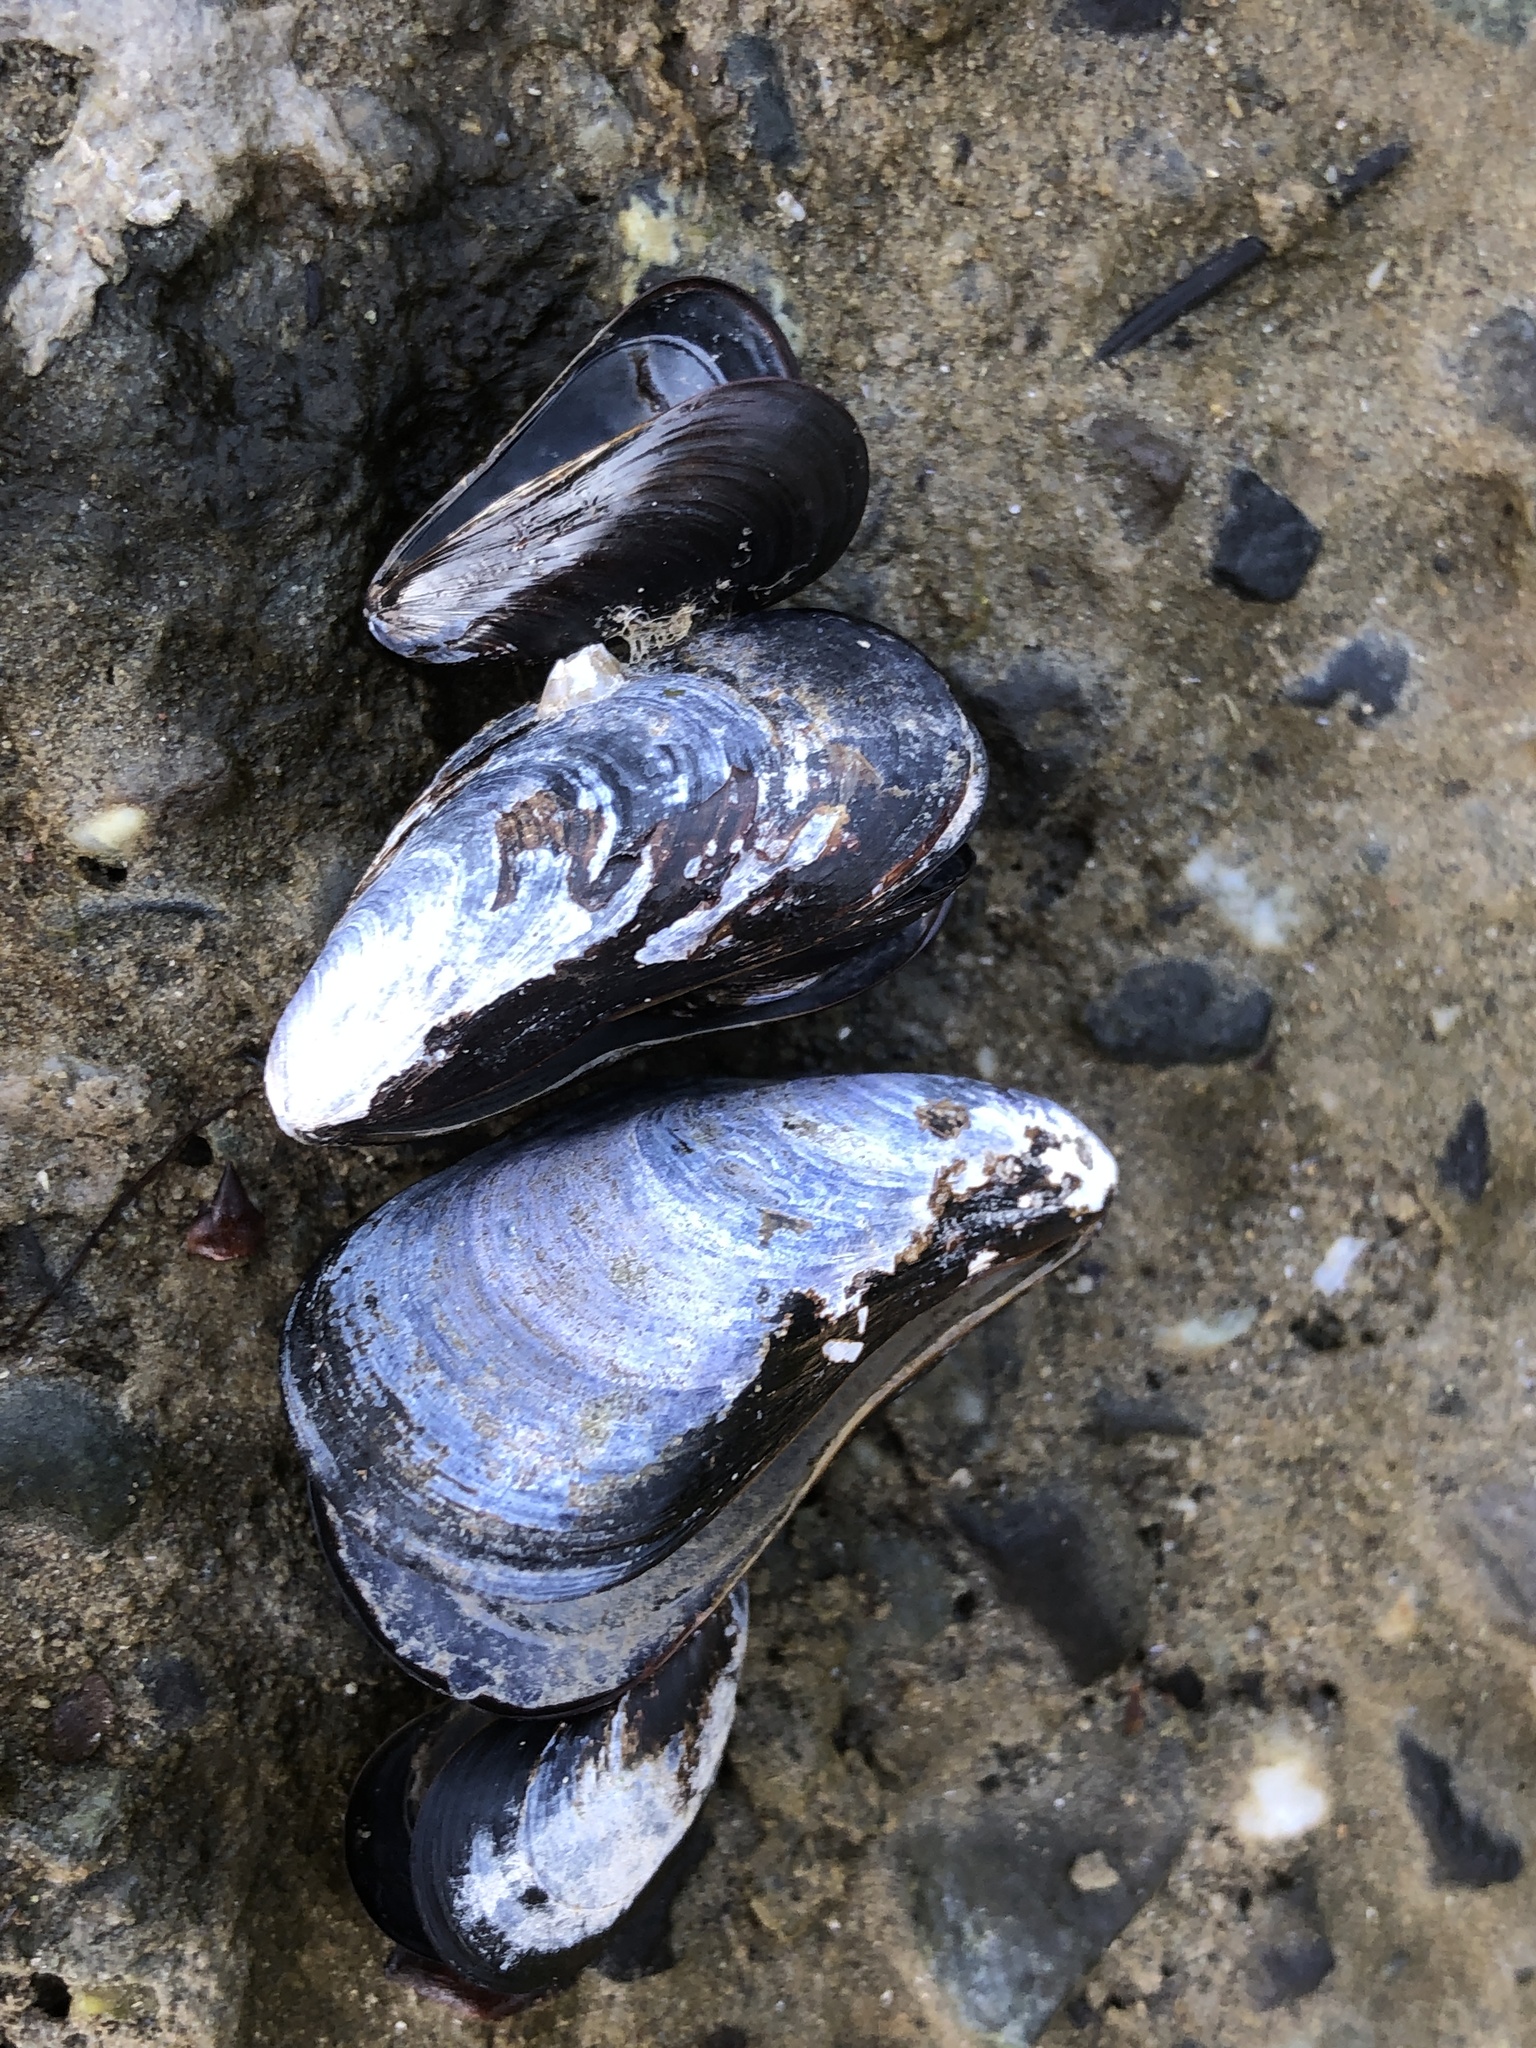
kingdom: Animalia
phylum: Mollusca
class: Bivalvia
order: Mytilida
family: Mytilidae
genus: Mytilus
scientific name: Mytilus
